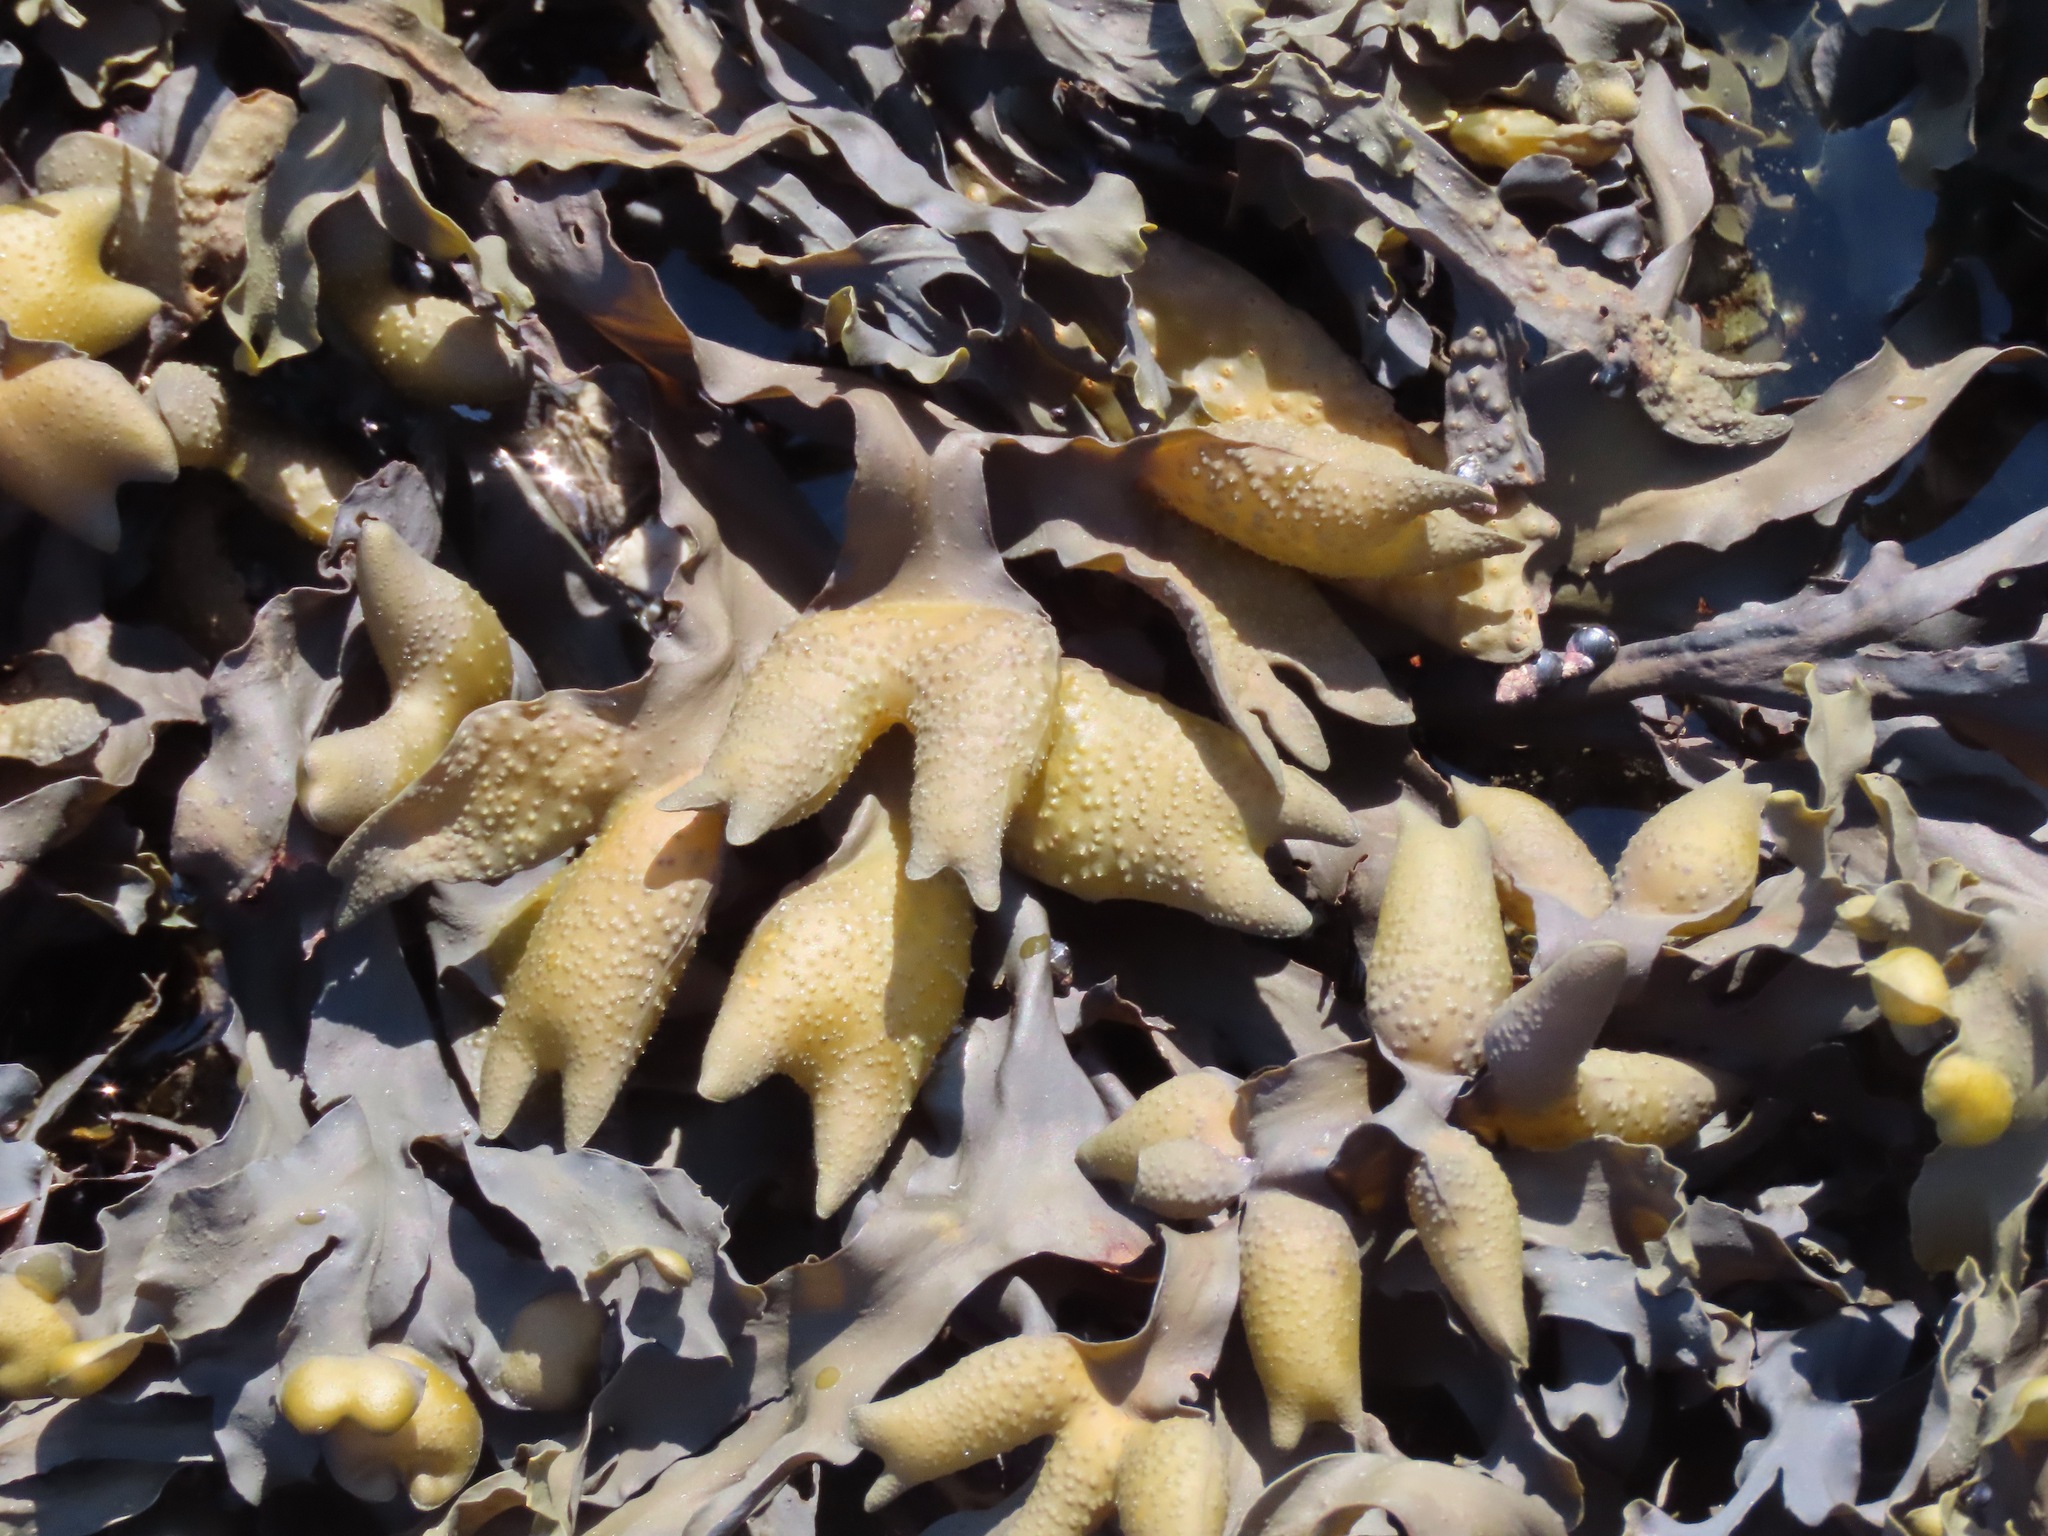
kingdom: Chromista
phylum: Ochrophyta
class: Phaeophyceae
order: Fucales
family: Fucaceae
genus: Fucus
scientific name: Fucus distichus
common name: Rockweed
